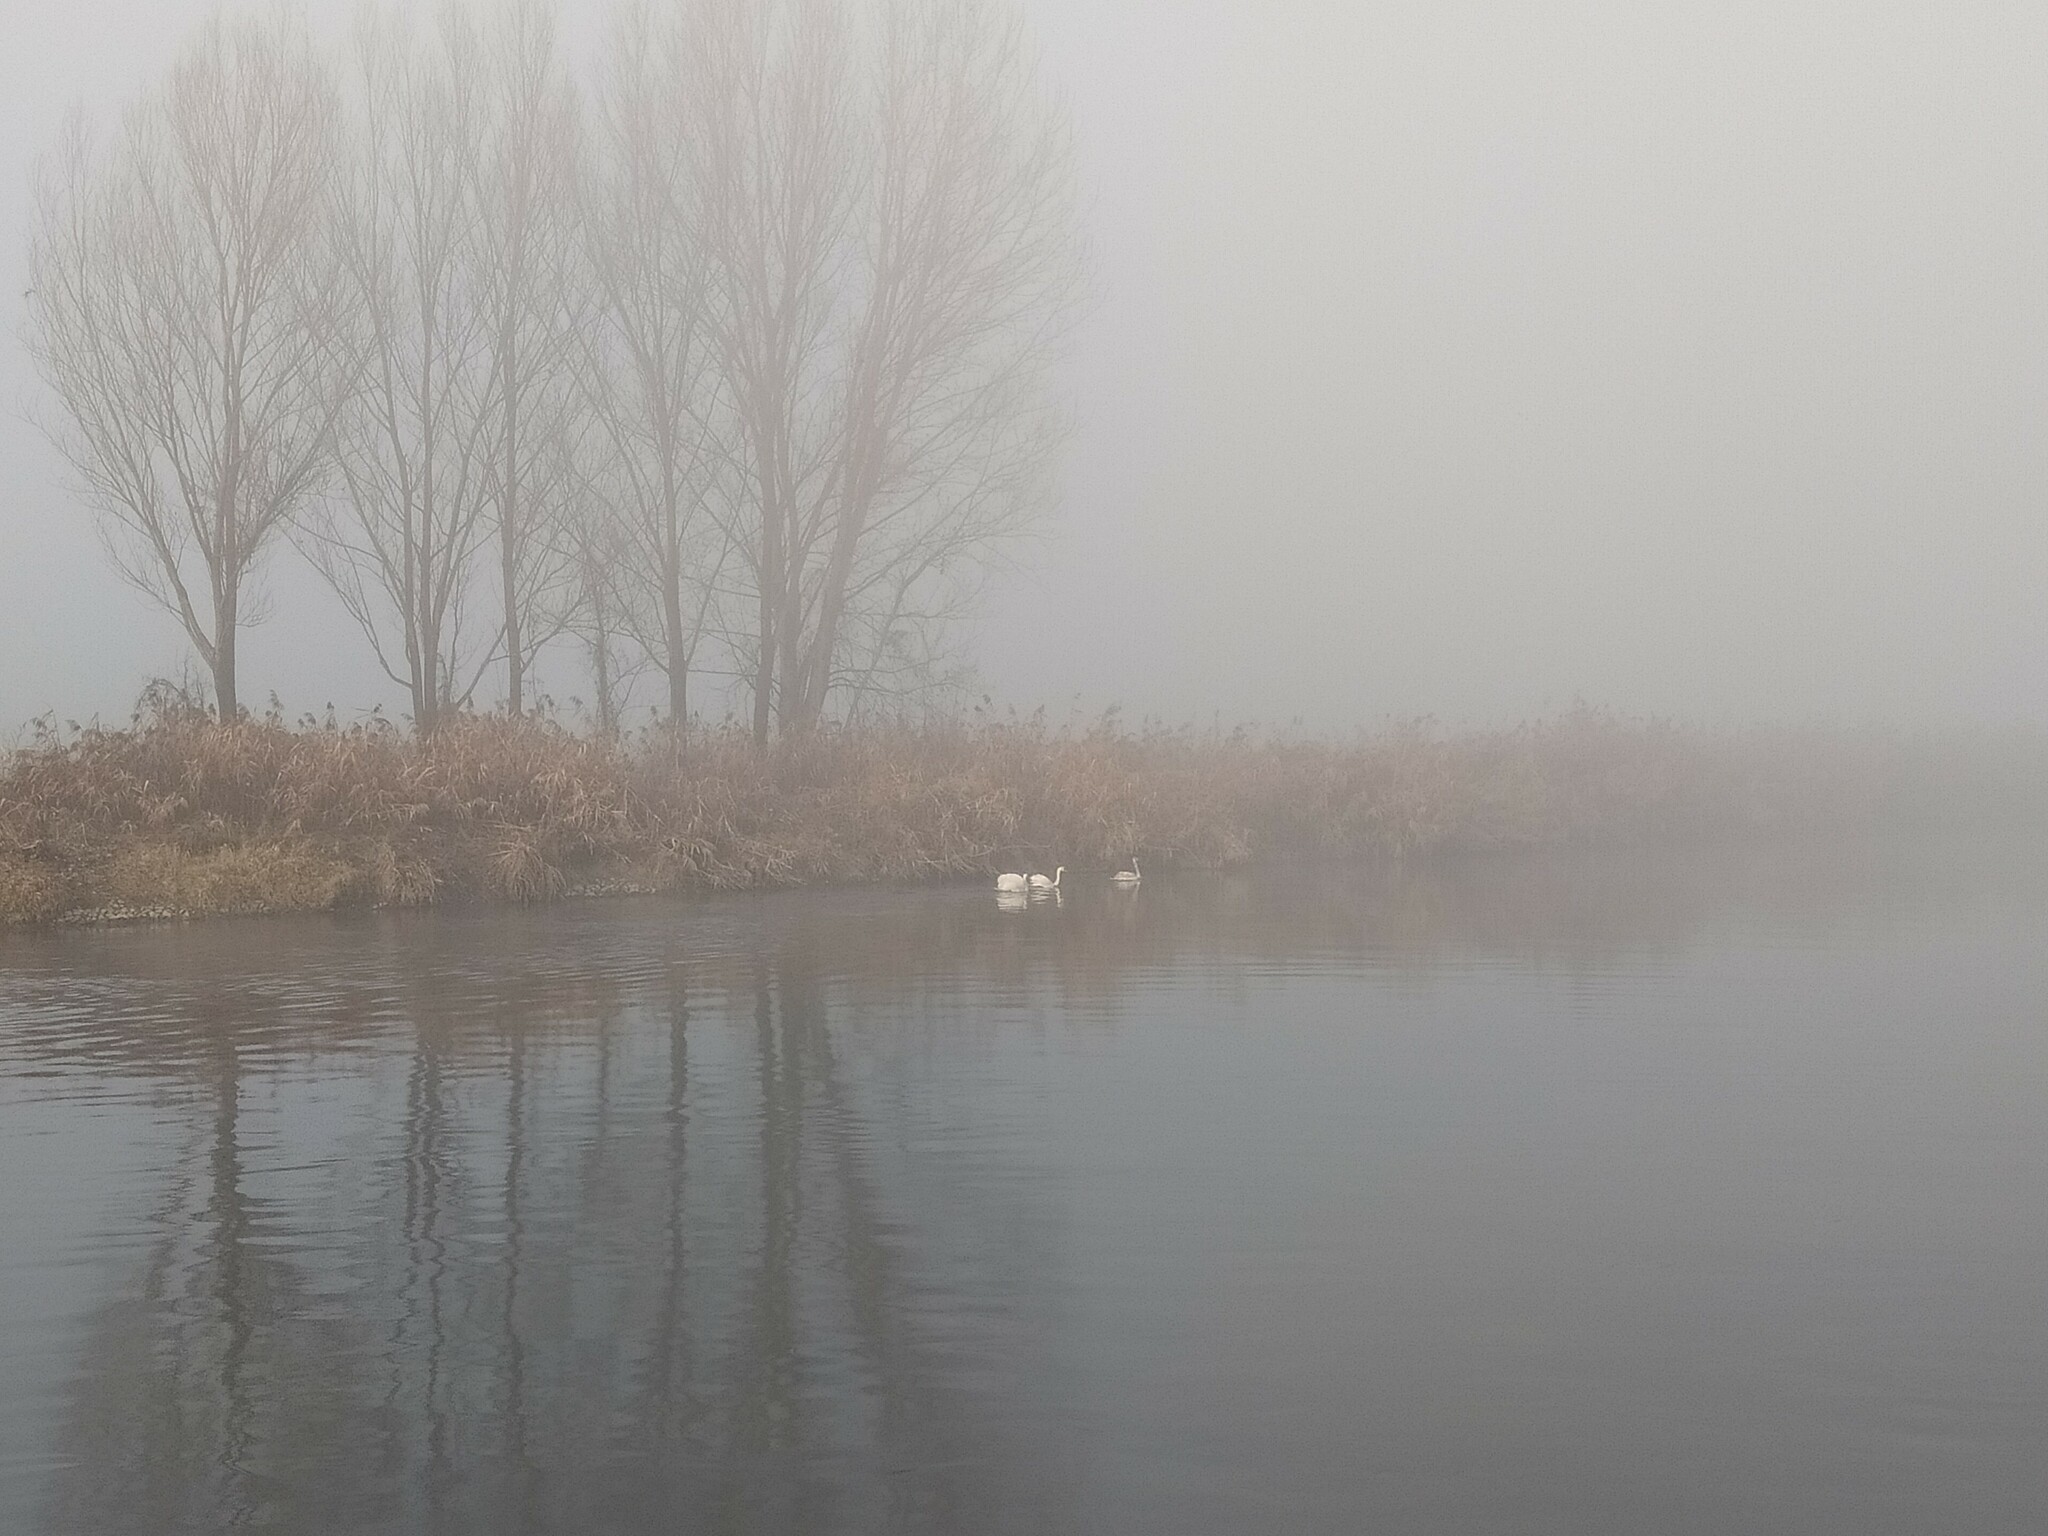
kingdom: Animalia
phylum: Chordata
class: Aves
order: Anseriformes
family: Anatidae
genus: Cygnus
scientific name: Cygnus olor
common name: Mute swan
